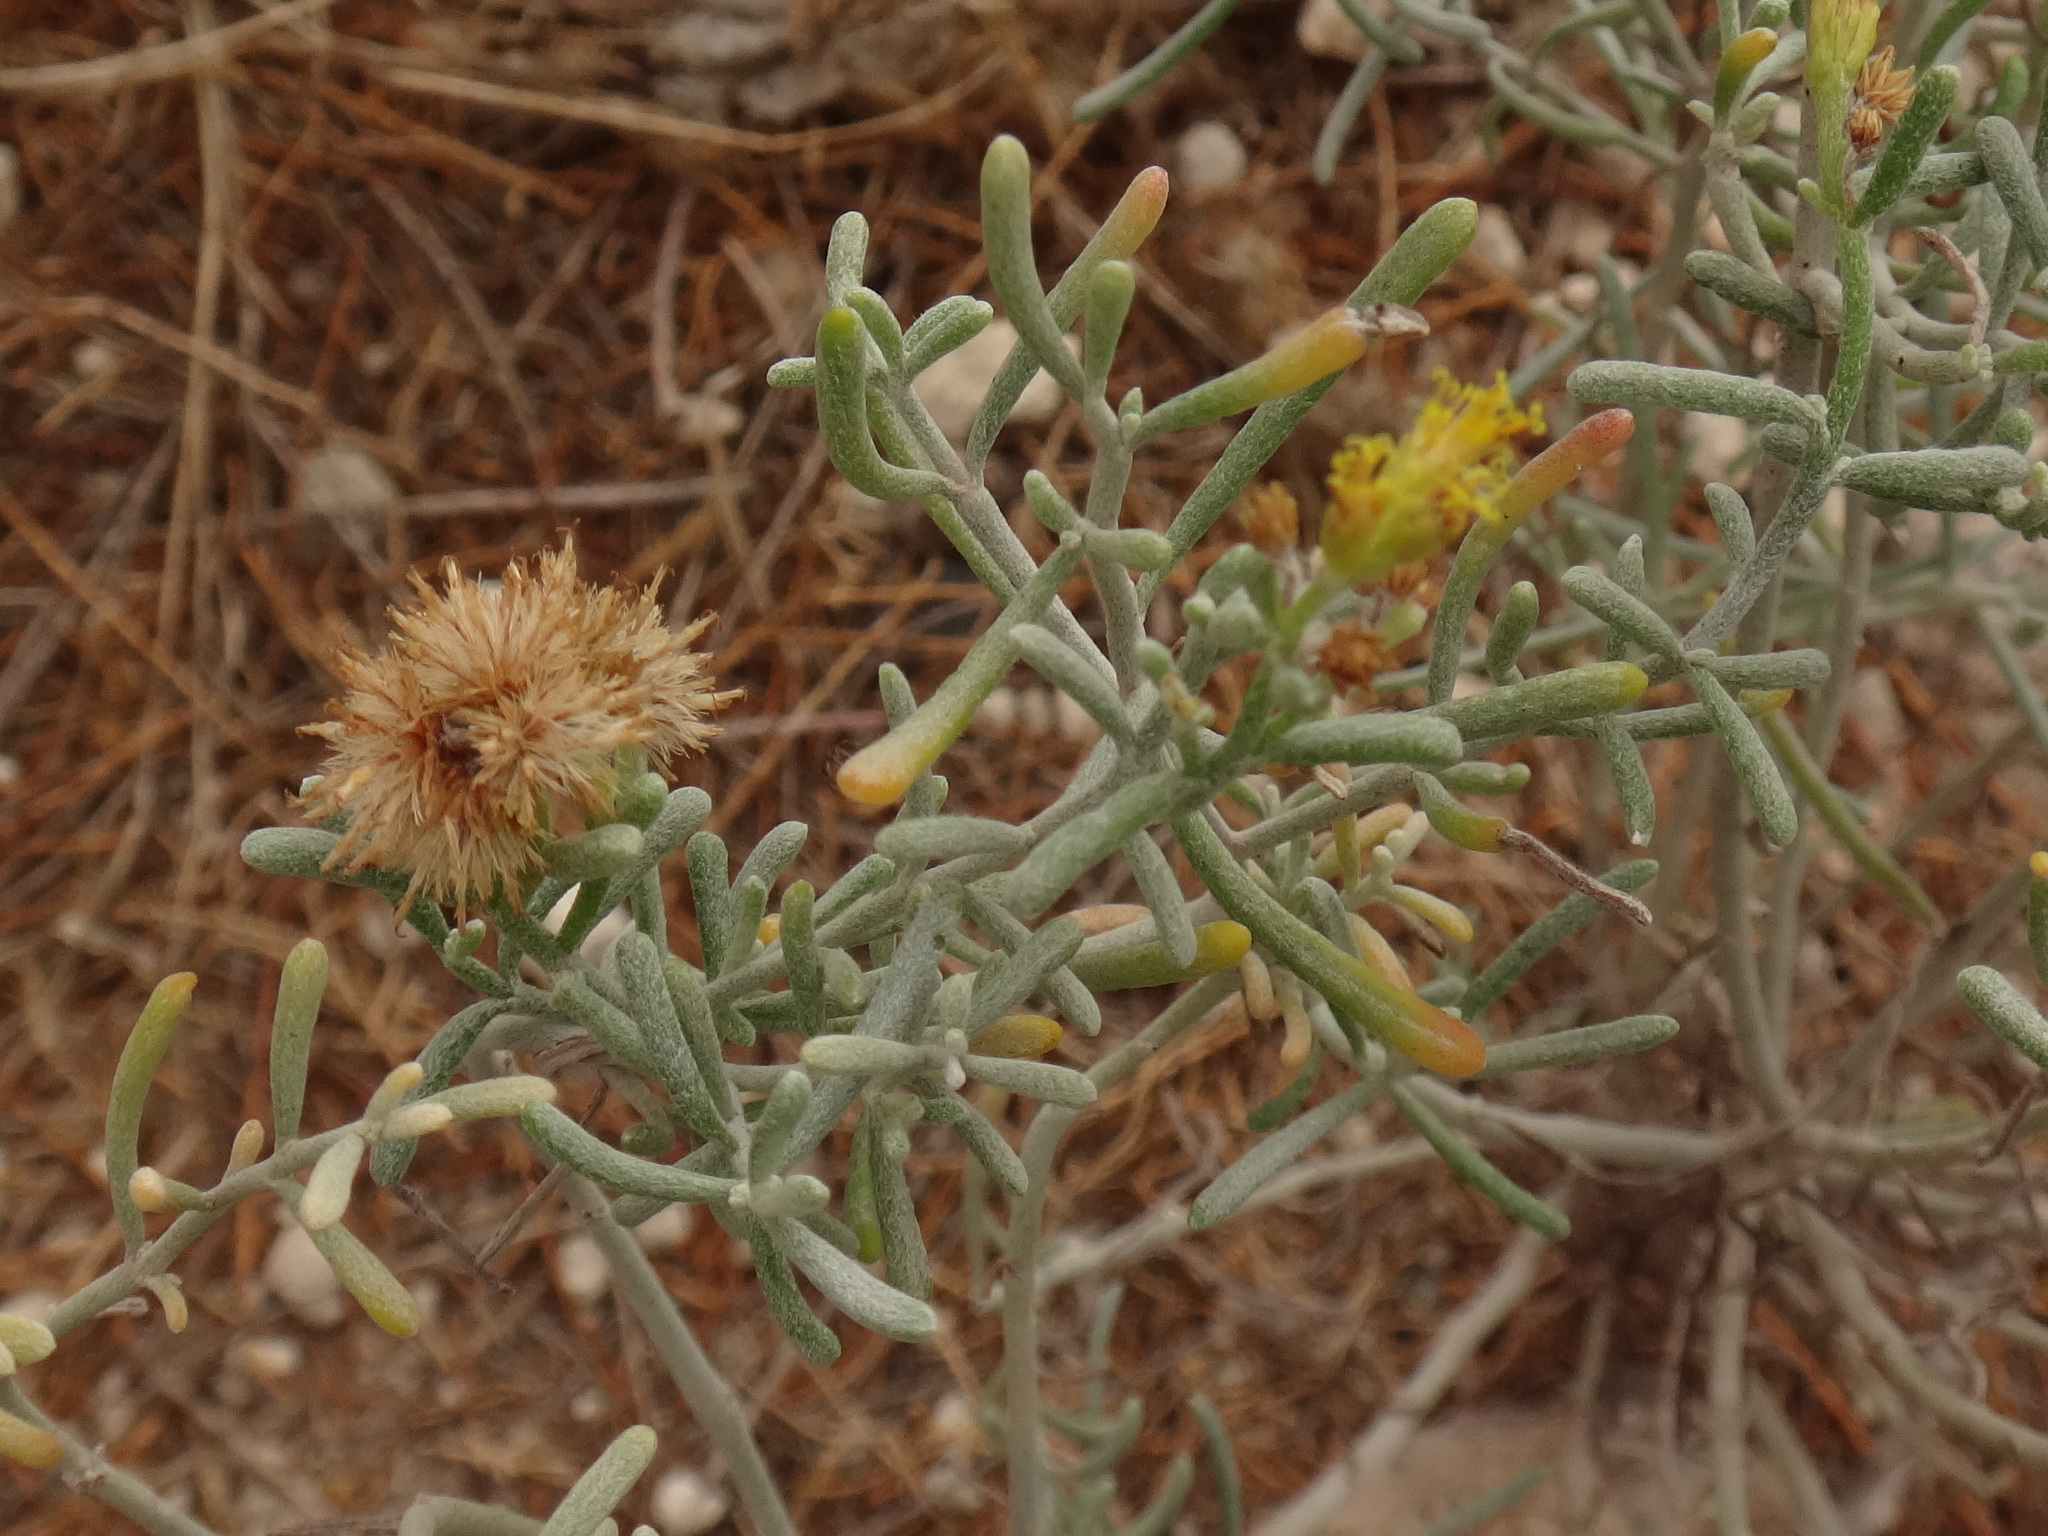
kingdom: Plantae
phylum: Tracheophyta
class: Magnoliopsida
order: Asterales
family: Asteraceae
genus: Schizogyne
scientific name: Schizogyne sericea
